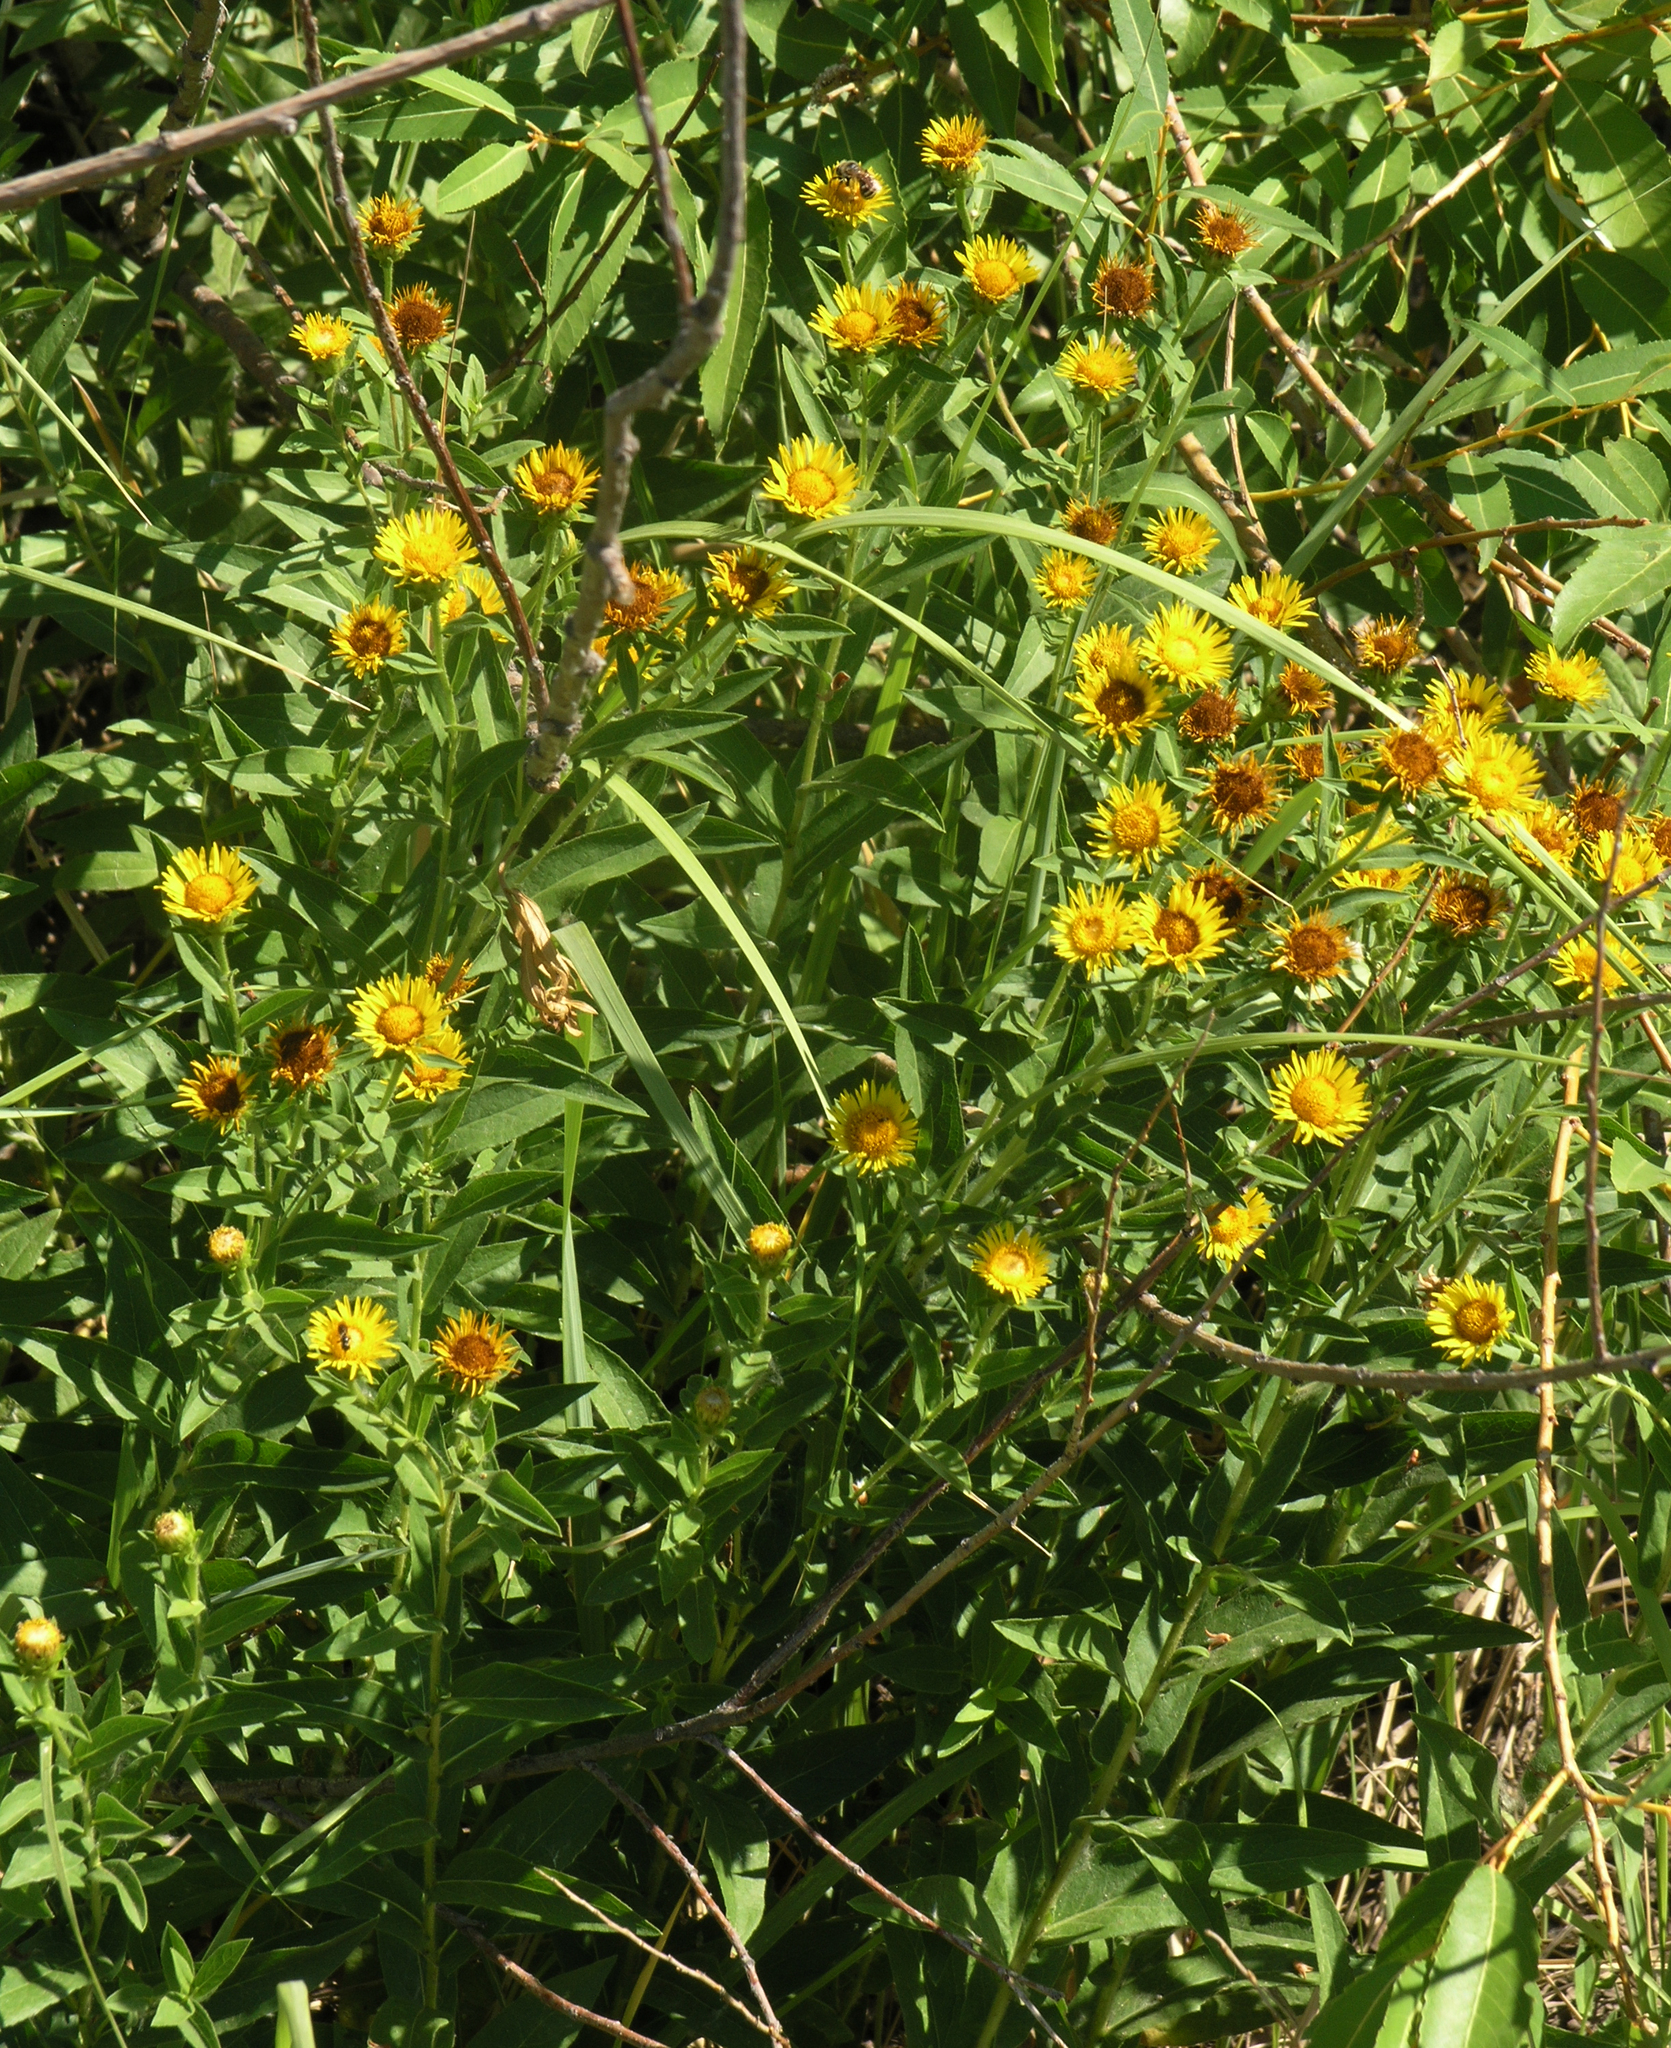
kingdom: Plantae
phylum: Tracheophyta
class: Magnoliopsida
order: Asterales
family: Asteraceae
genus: Pentanema
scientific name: Pentanema britannicum
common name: British elecampane
